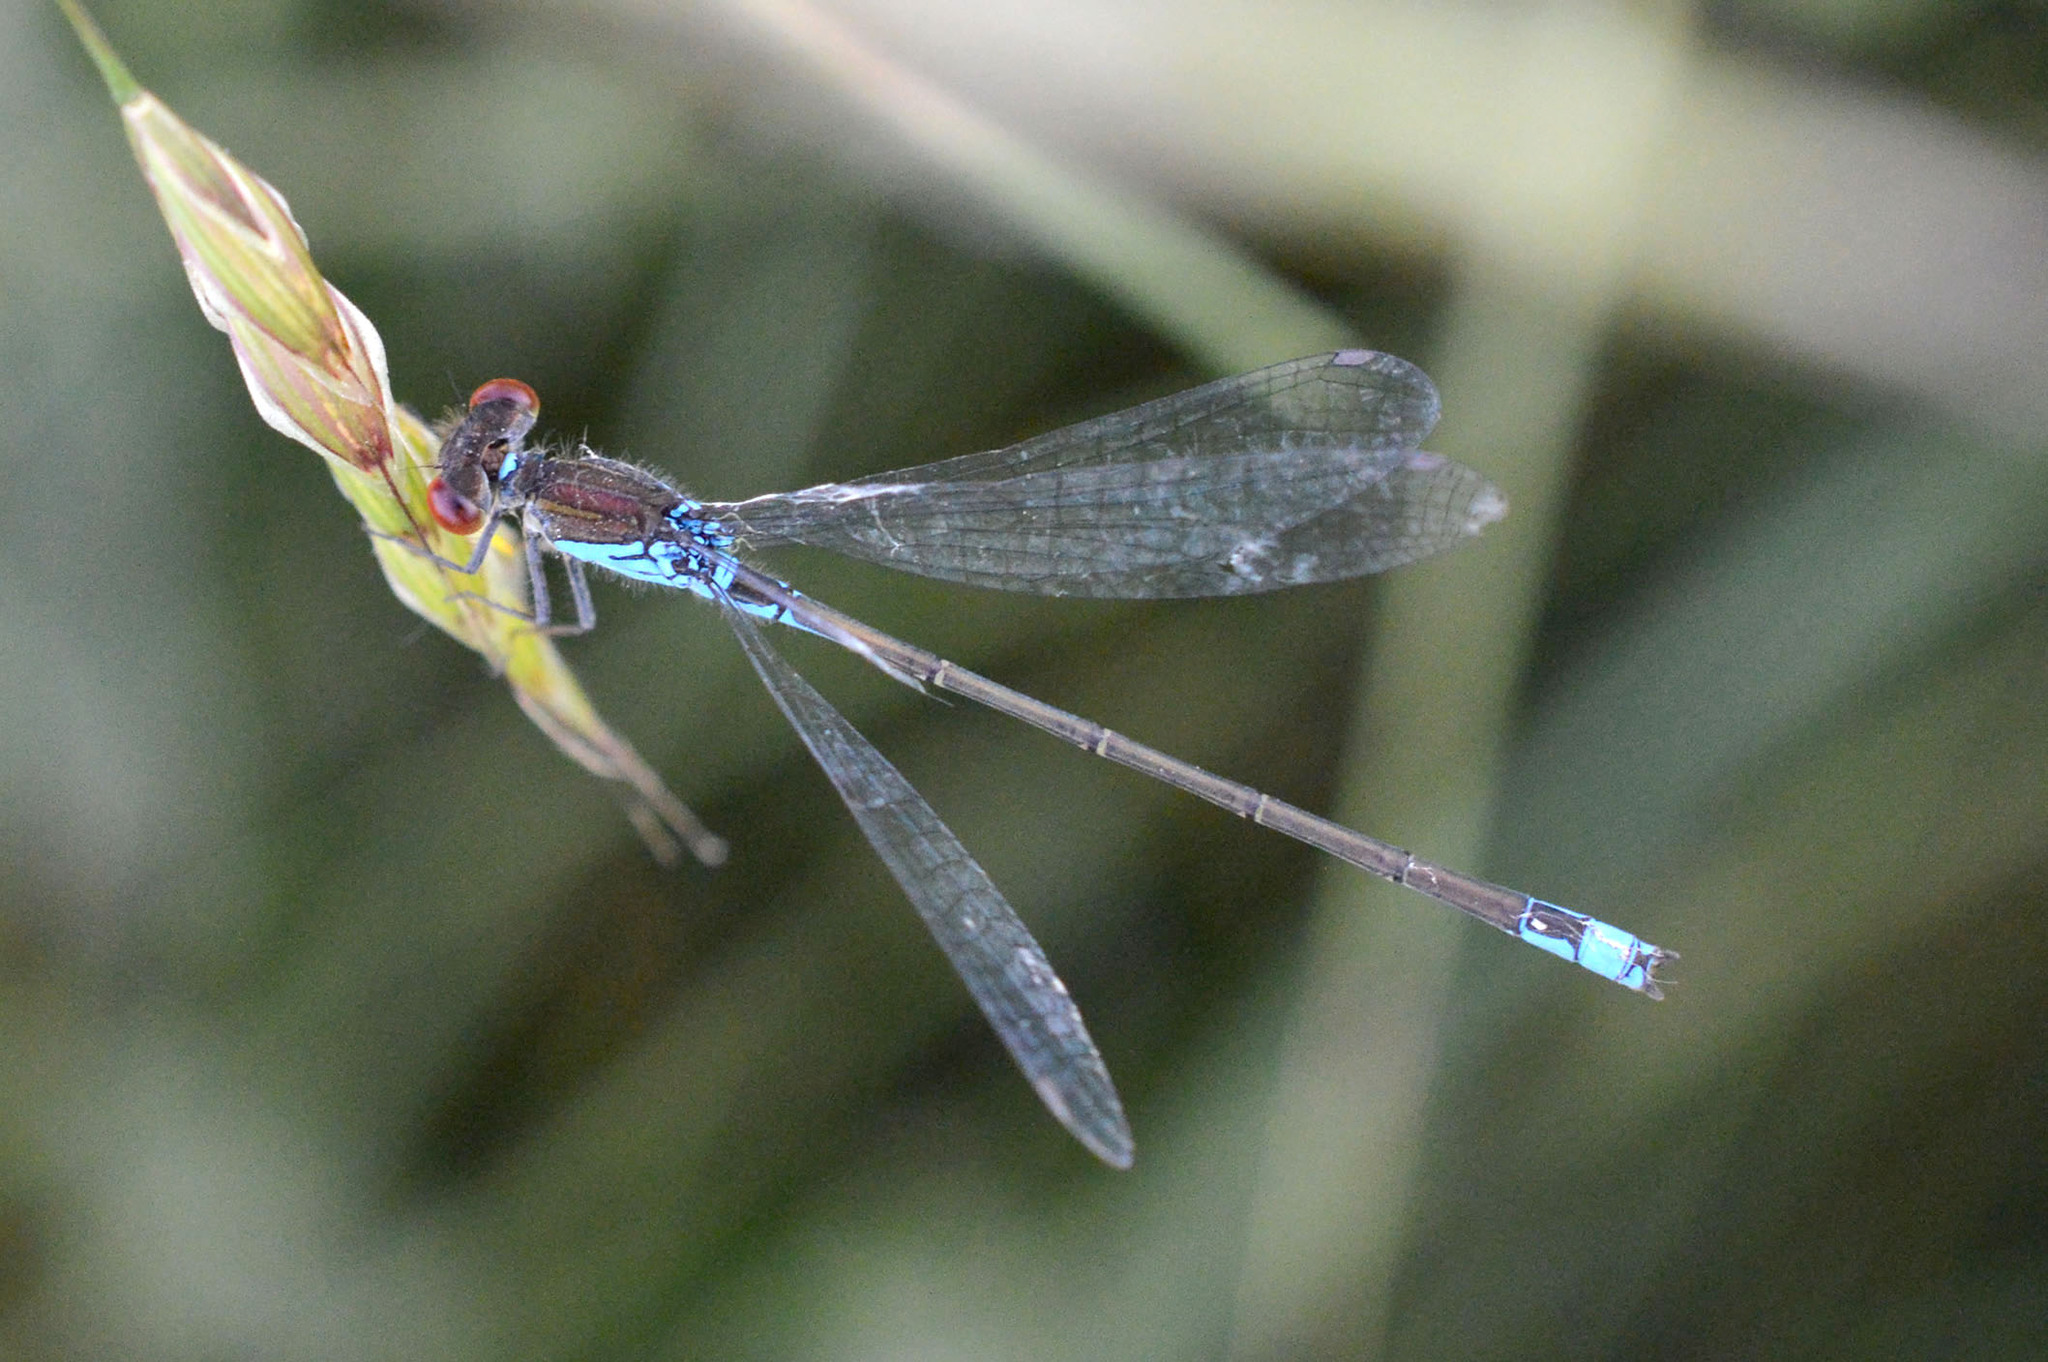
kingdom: Animalia
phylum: Arthropoda
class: Insecta
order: Odonata
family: Coenagrionidae
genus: Erythromma
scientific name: Erythromma viridulum
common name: Small red-eyed damselfly
